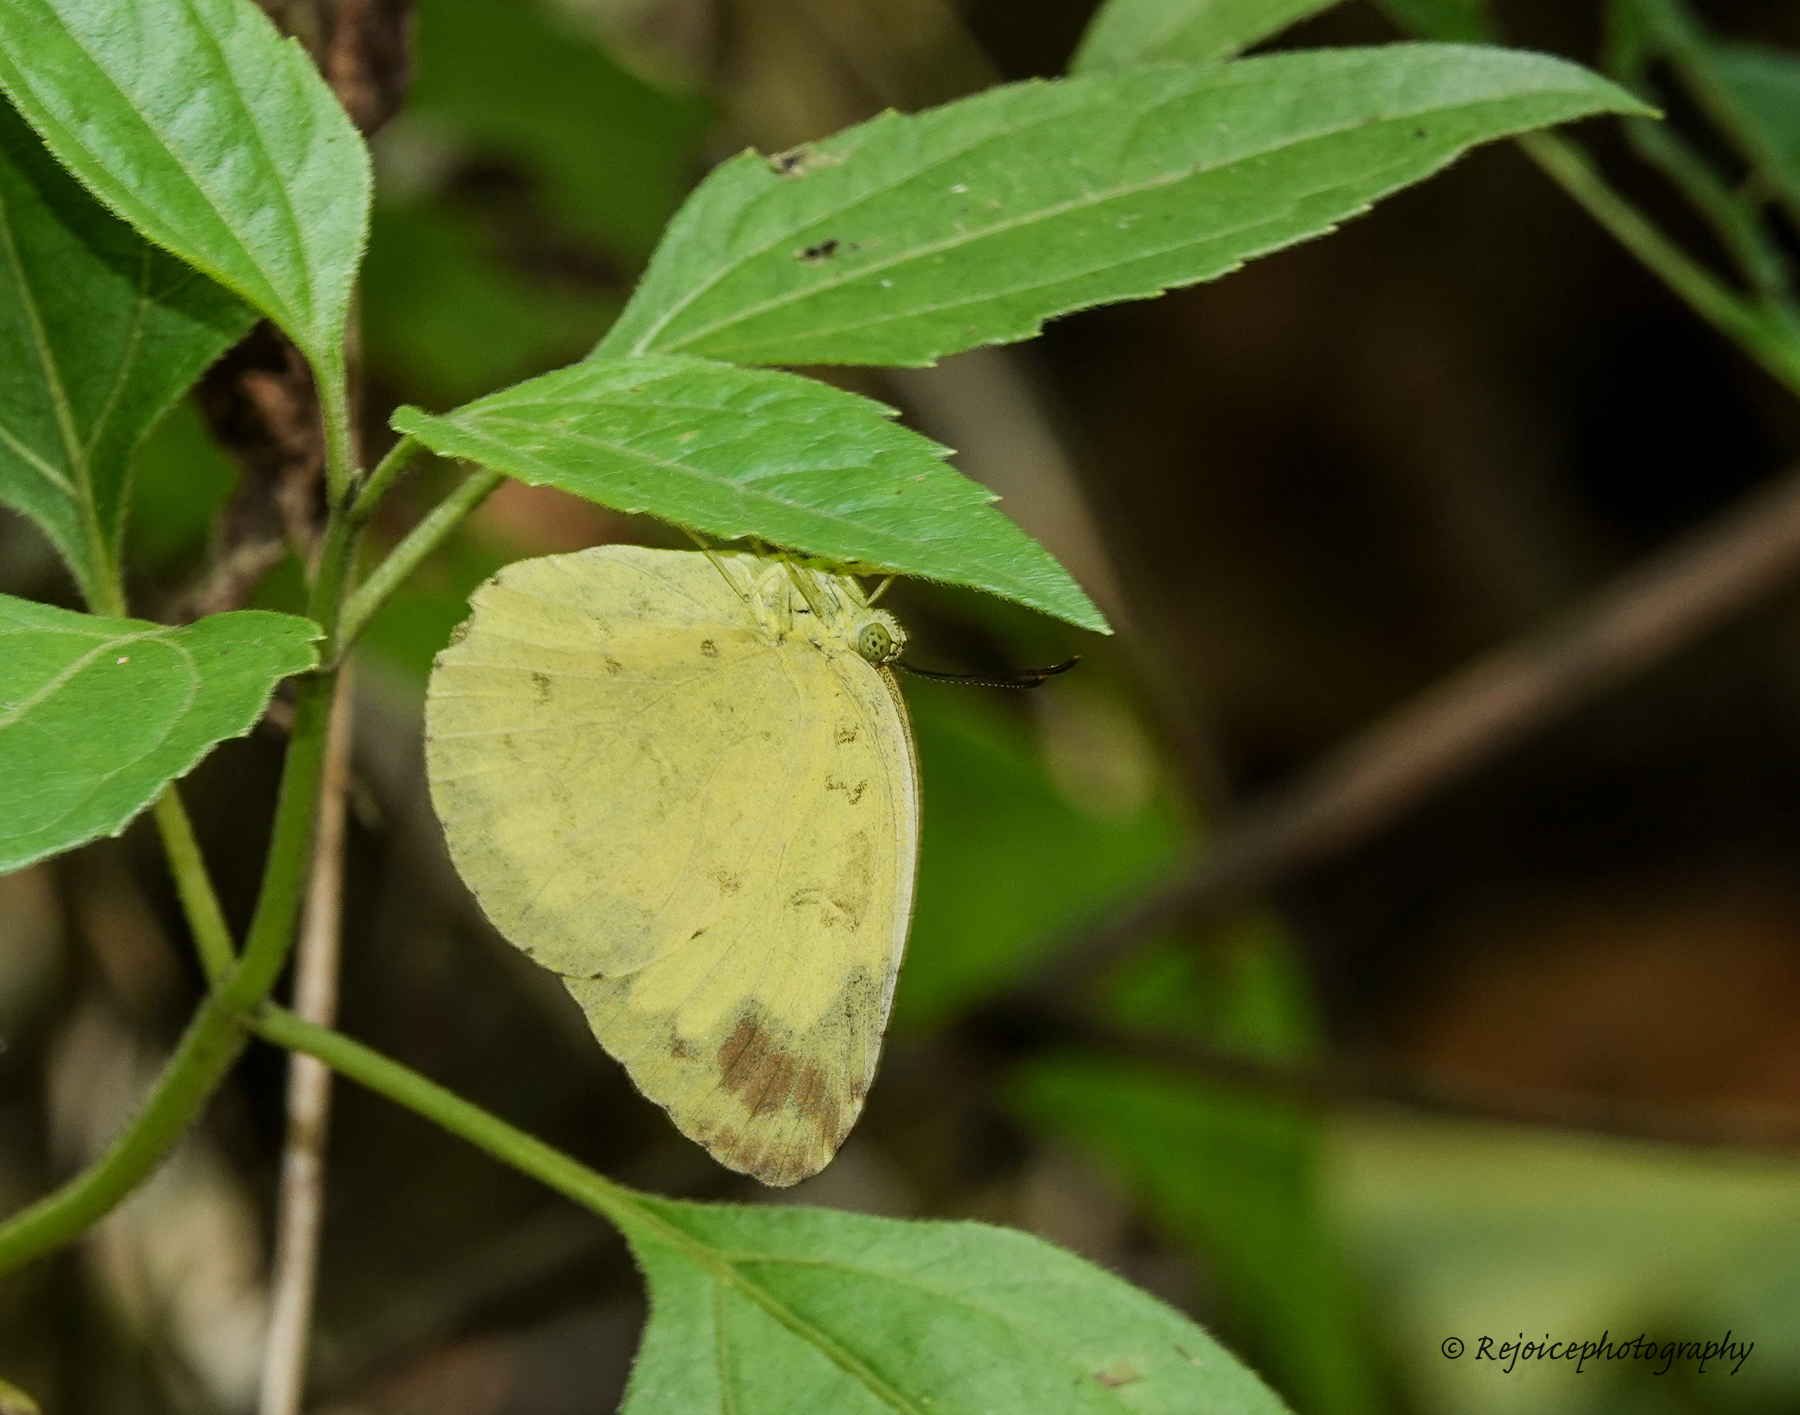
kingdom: Animalia
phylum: Arthropoda
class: Insecta
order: Lepidoptera
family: Pieridae
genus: Eurema
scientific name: Eurema hecabe
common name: Pale grass yellow
